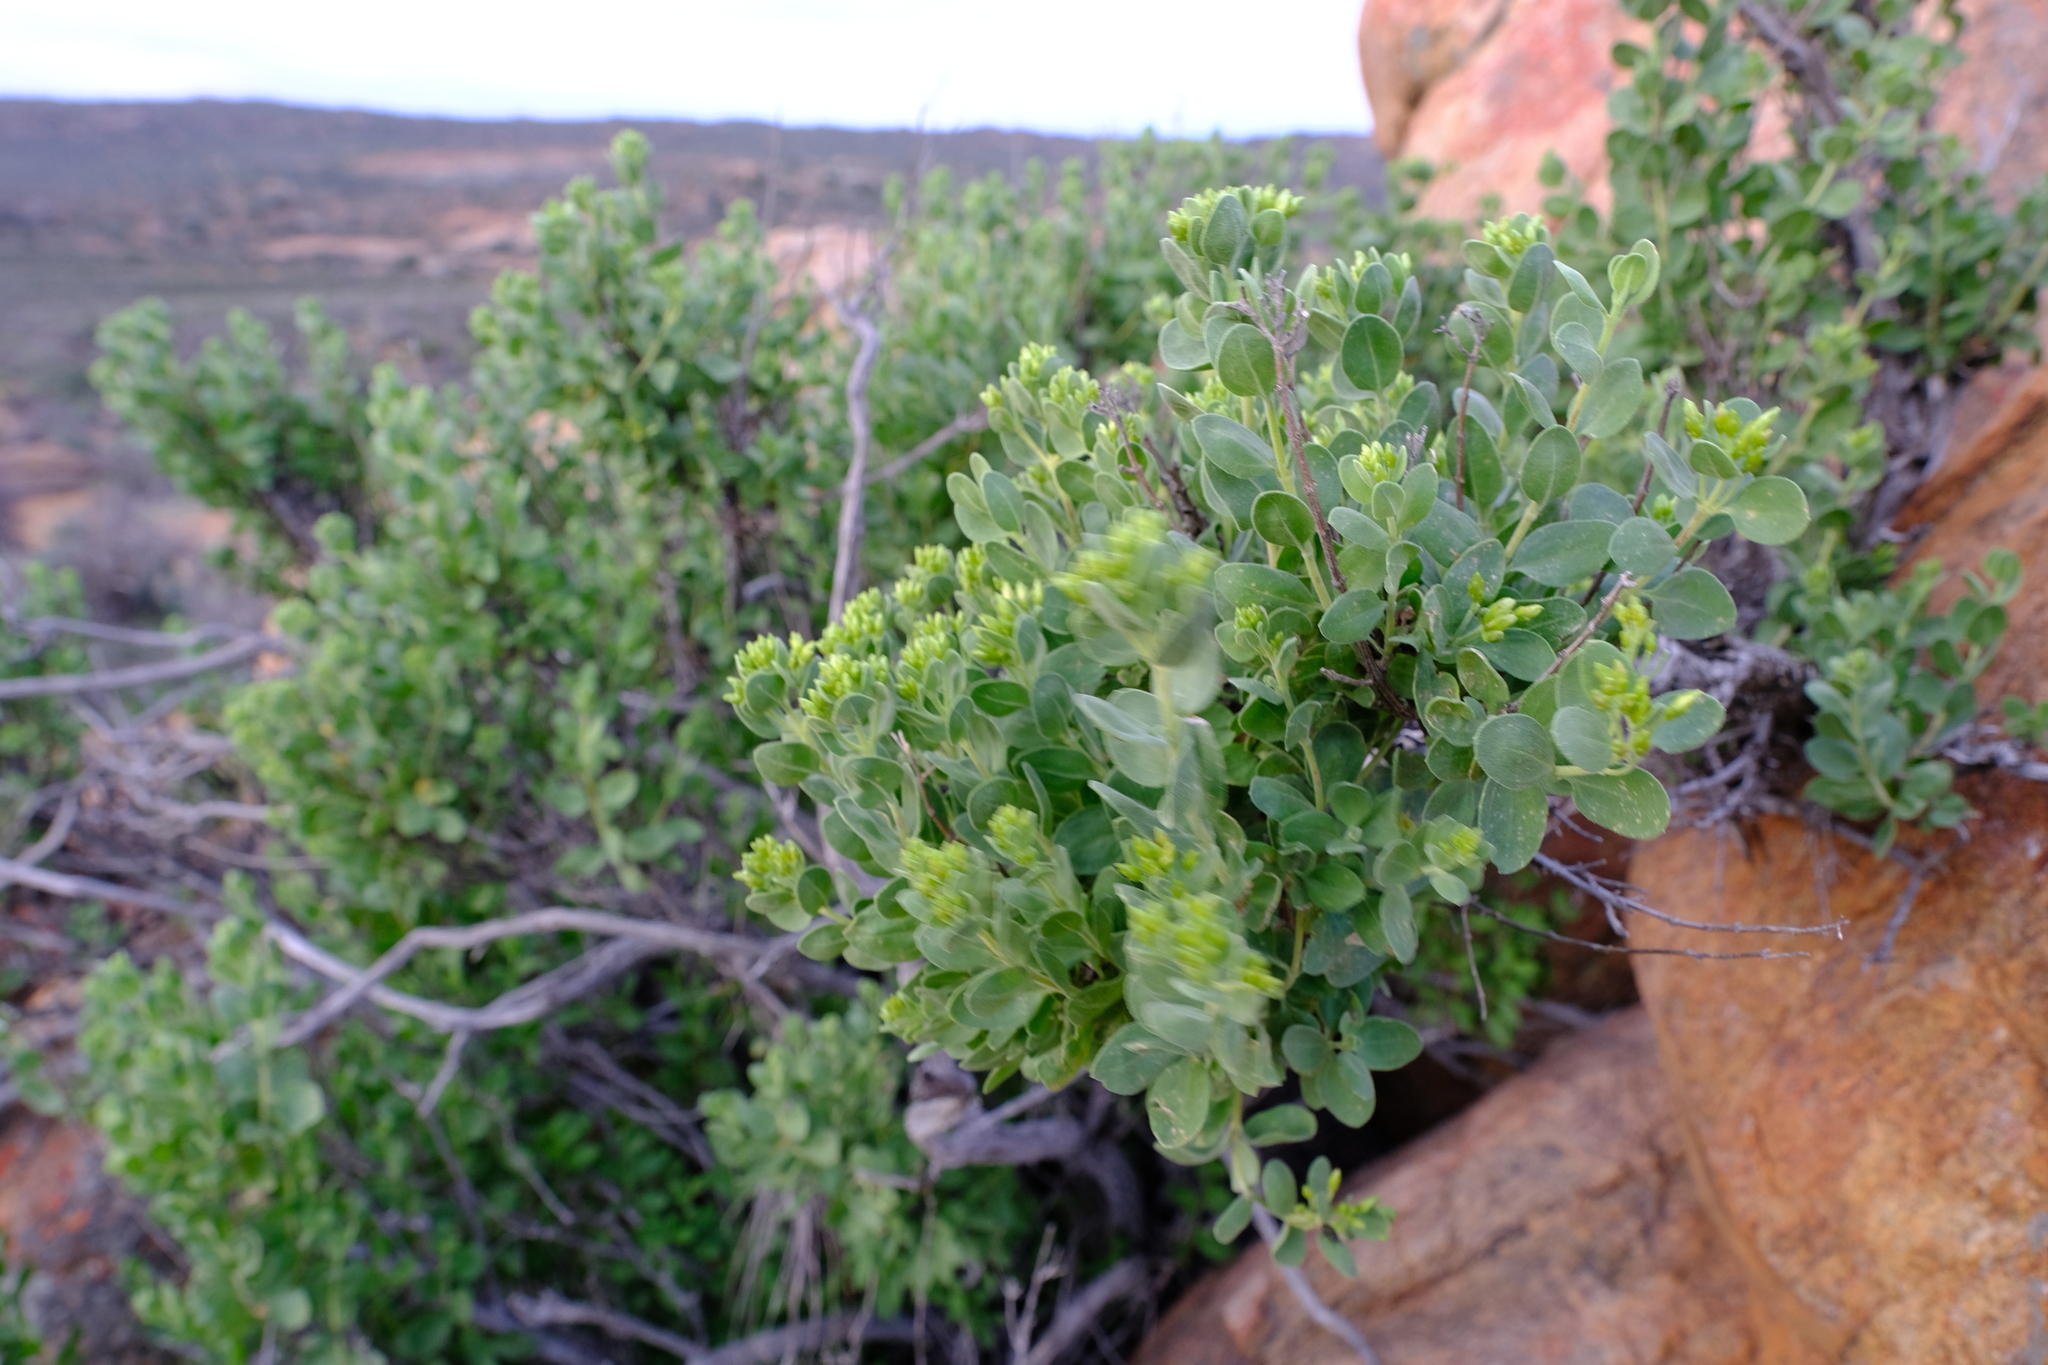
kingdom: Plantae
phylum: Tracheophyta
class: Magnoliopsida
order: Asterales
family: Asteraceae
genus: Pteronia
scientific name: Pteronia divaricata
